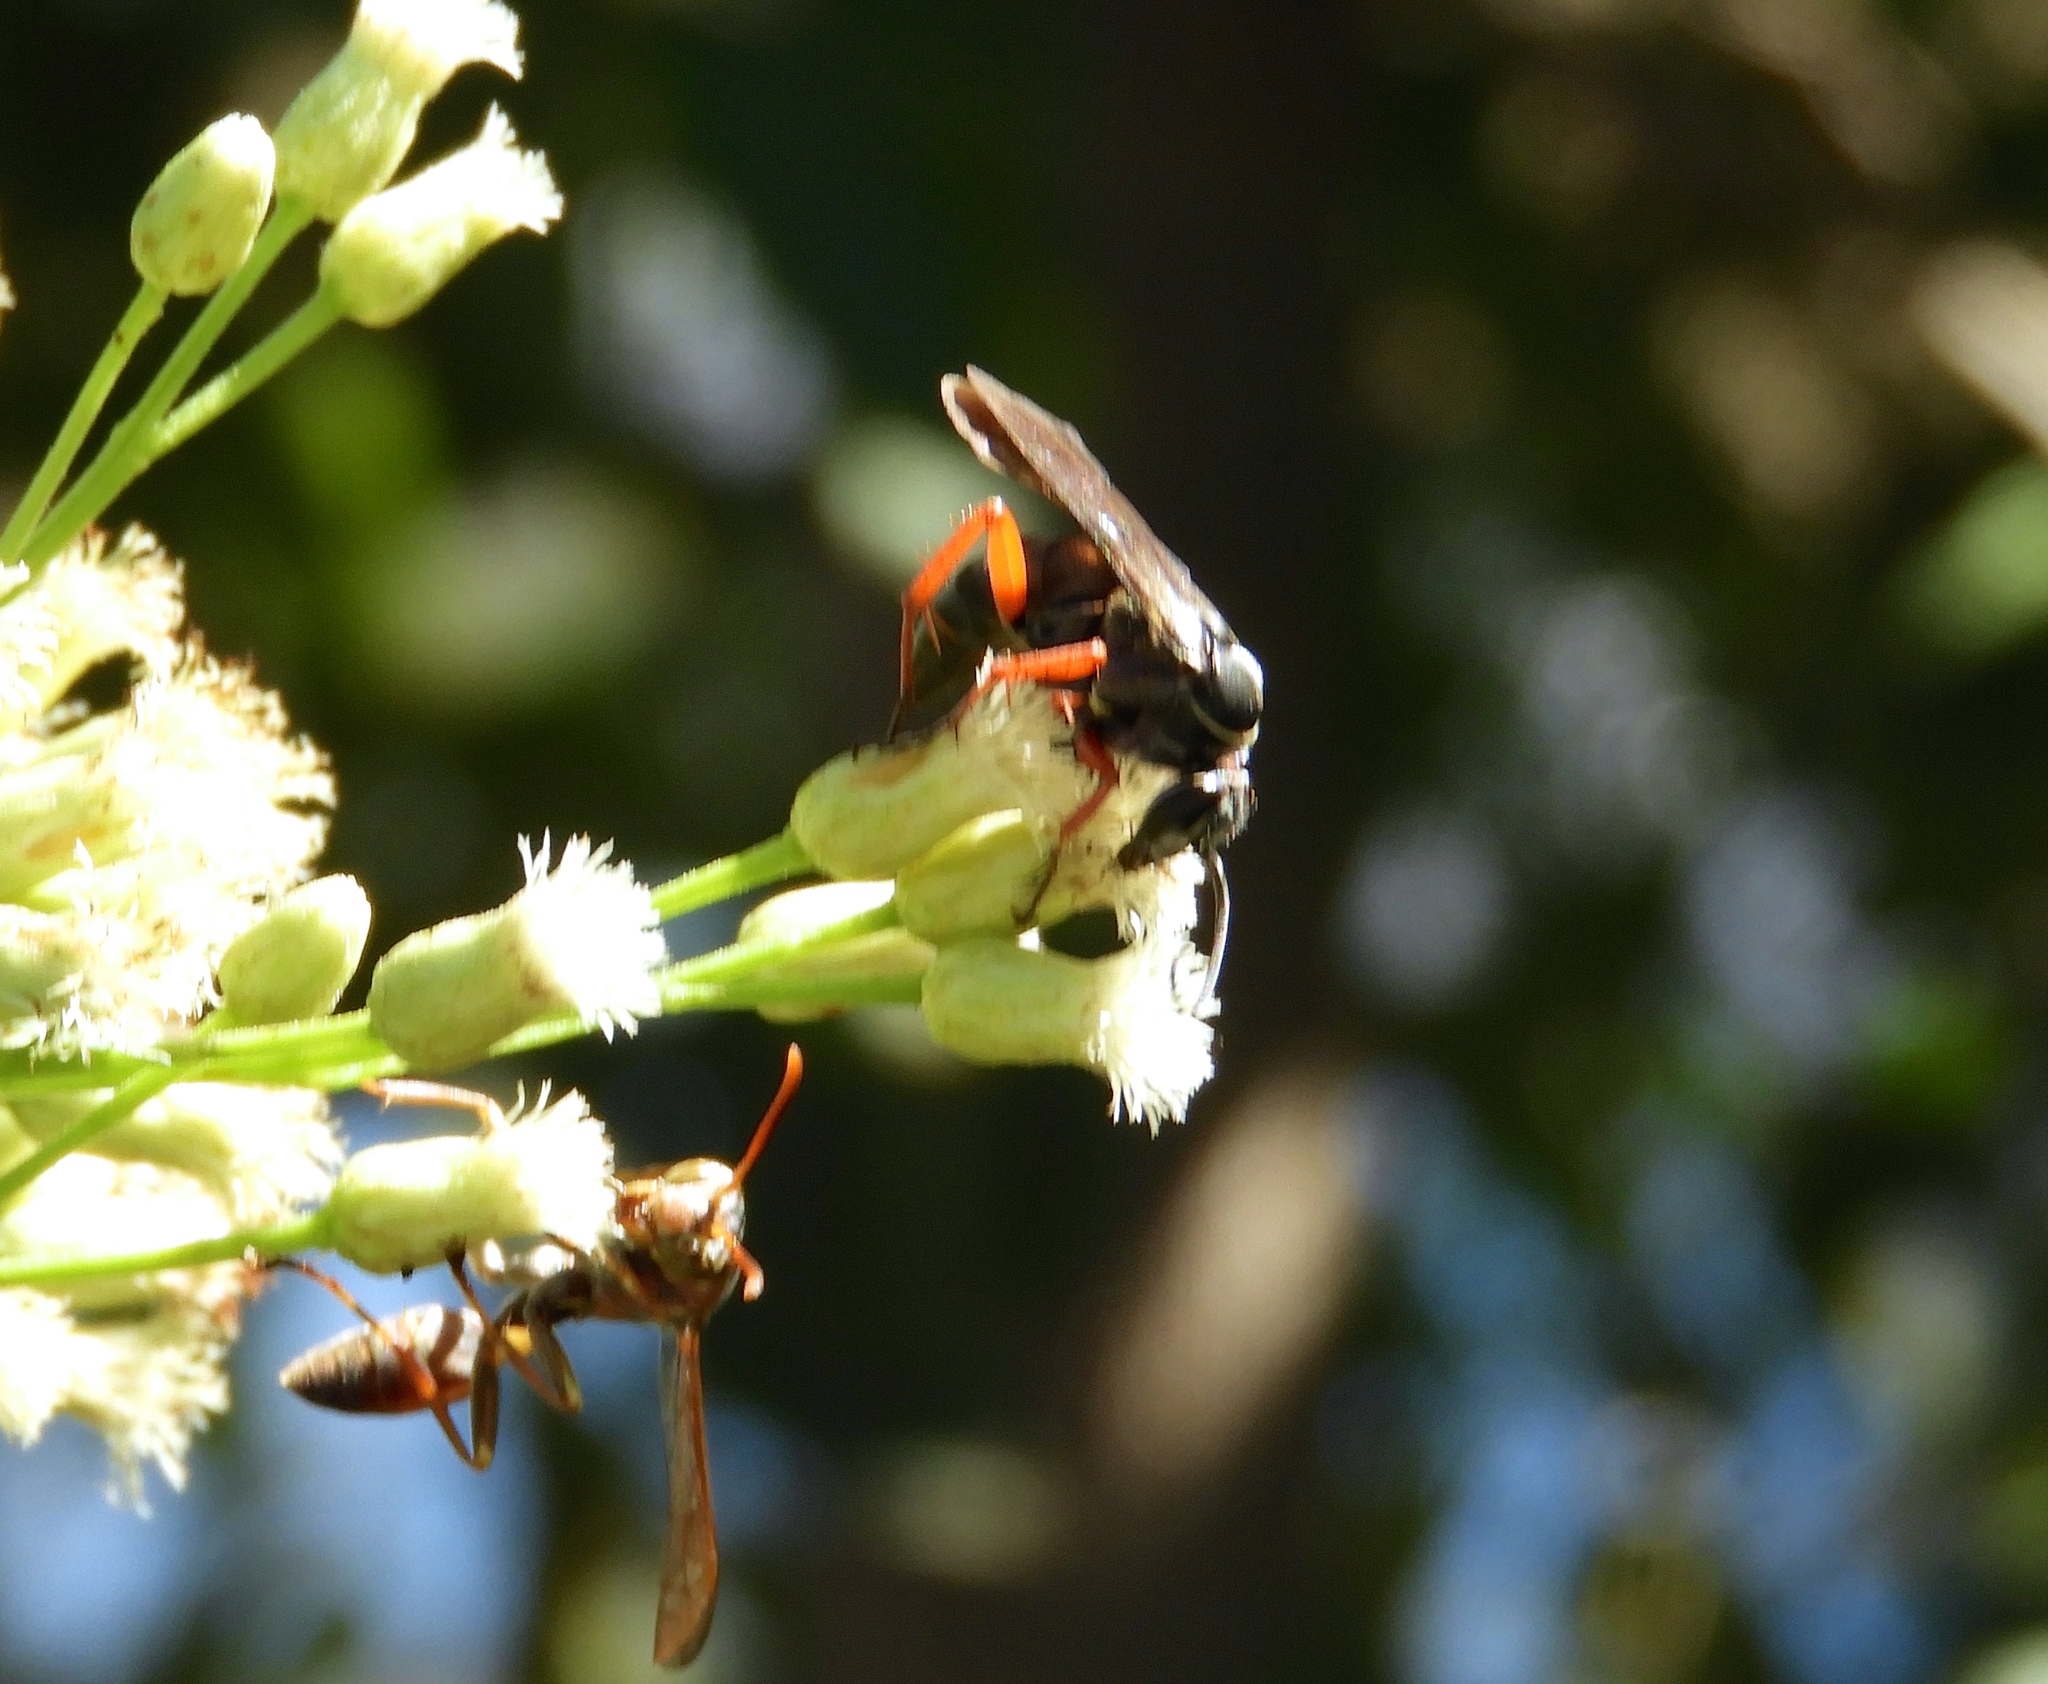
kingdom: Animalia
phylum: Arthropoda
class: Insecta
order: Hymenoptera
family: Pompilidae
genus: Episyron
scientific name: Episyron conterminus
